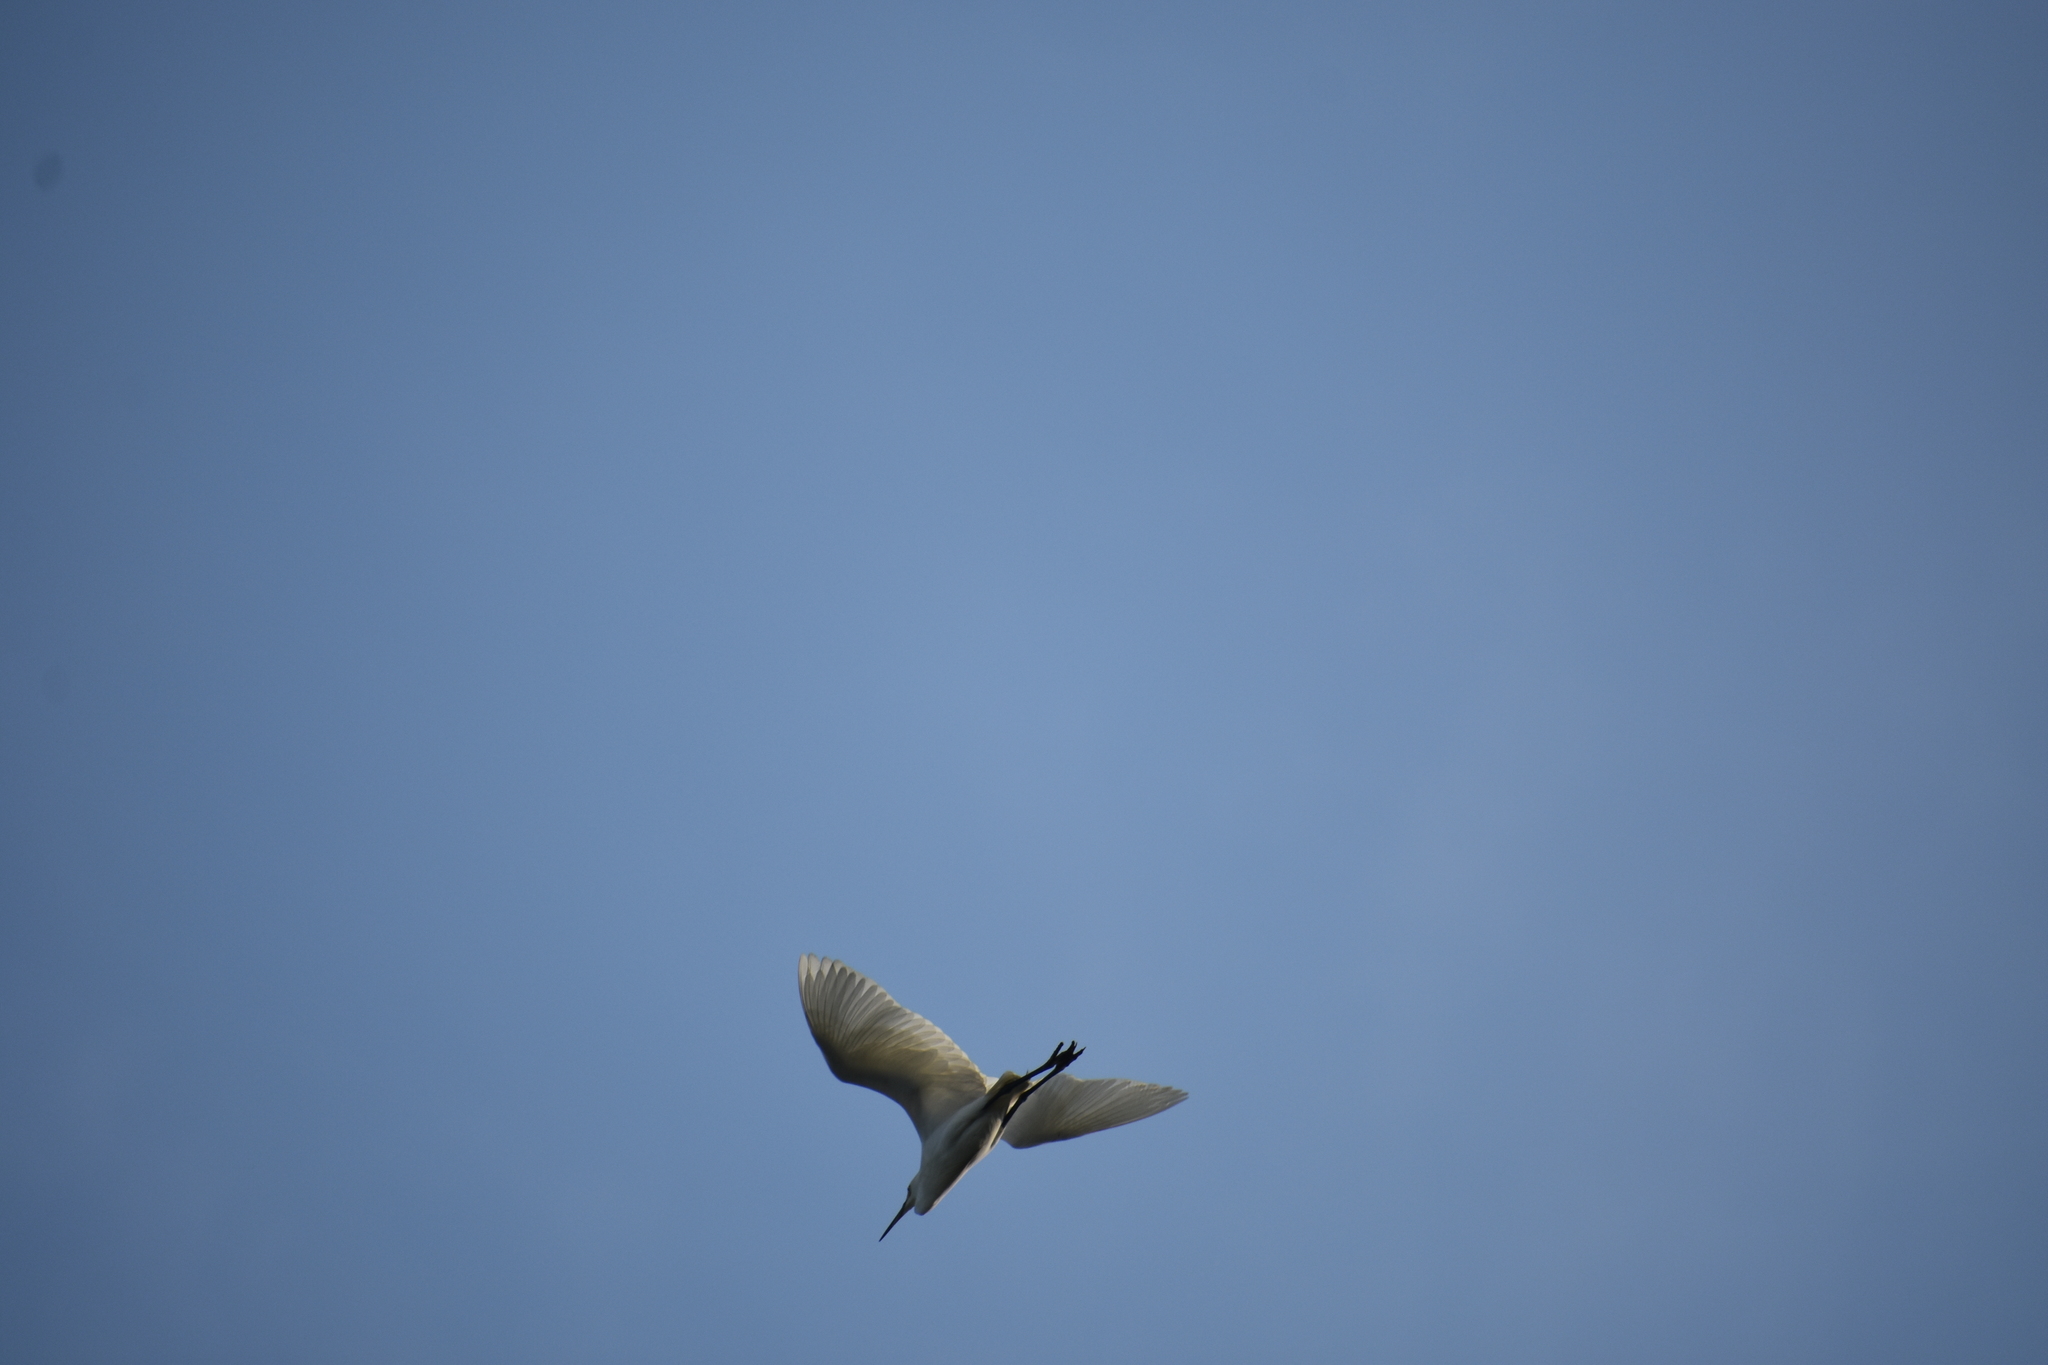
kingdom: Animalia
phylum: Chordata
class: Aves
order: Pelecaniformes
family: Ardeidae
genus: Egretta
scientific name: Egretta thula
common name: Snowy egret
